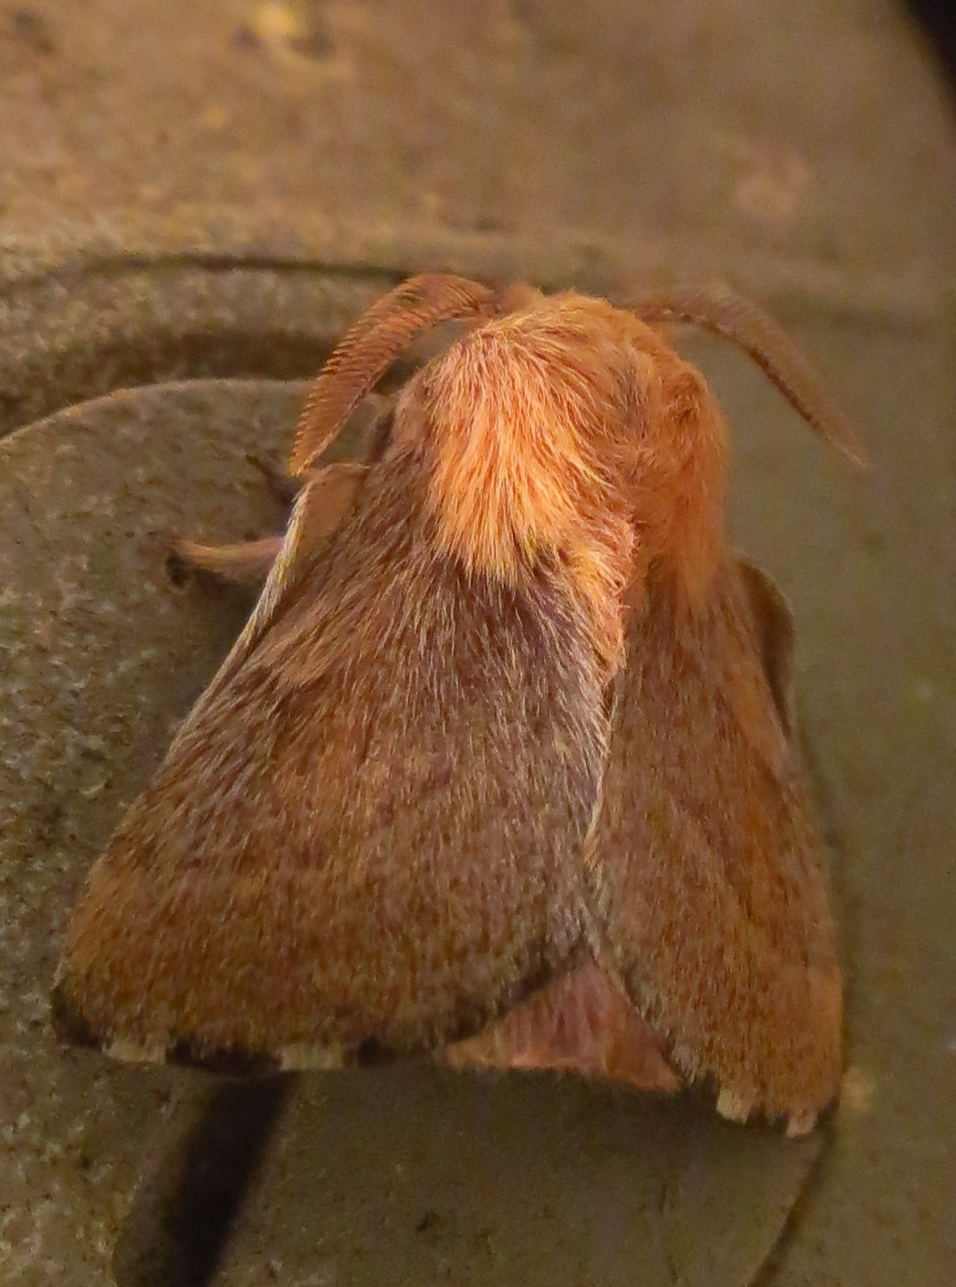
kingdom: Animalia
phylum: Arthropoda
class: Insecta
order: Lepidoptera
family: Lasiocampidae
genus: Malacosoma
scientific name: Malacosoma disstria
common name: Forest tent caterpillar
